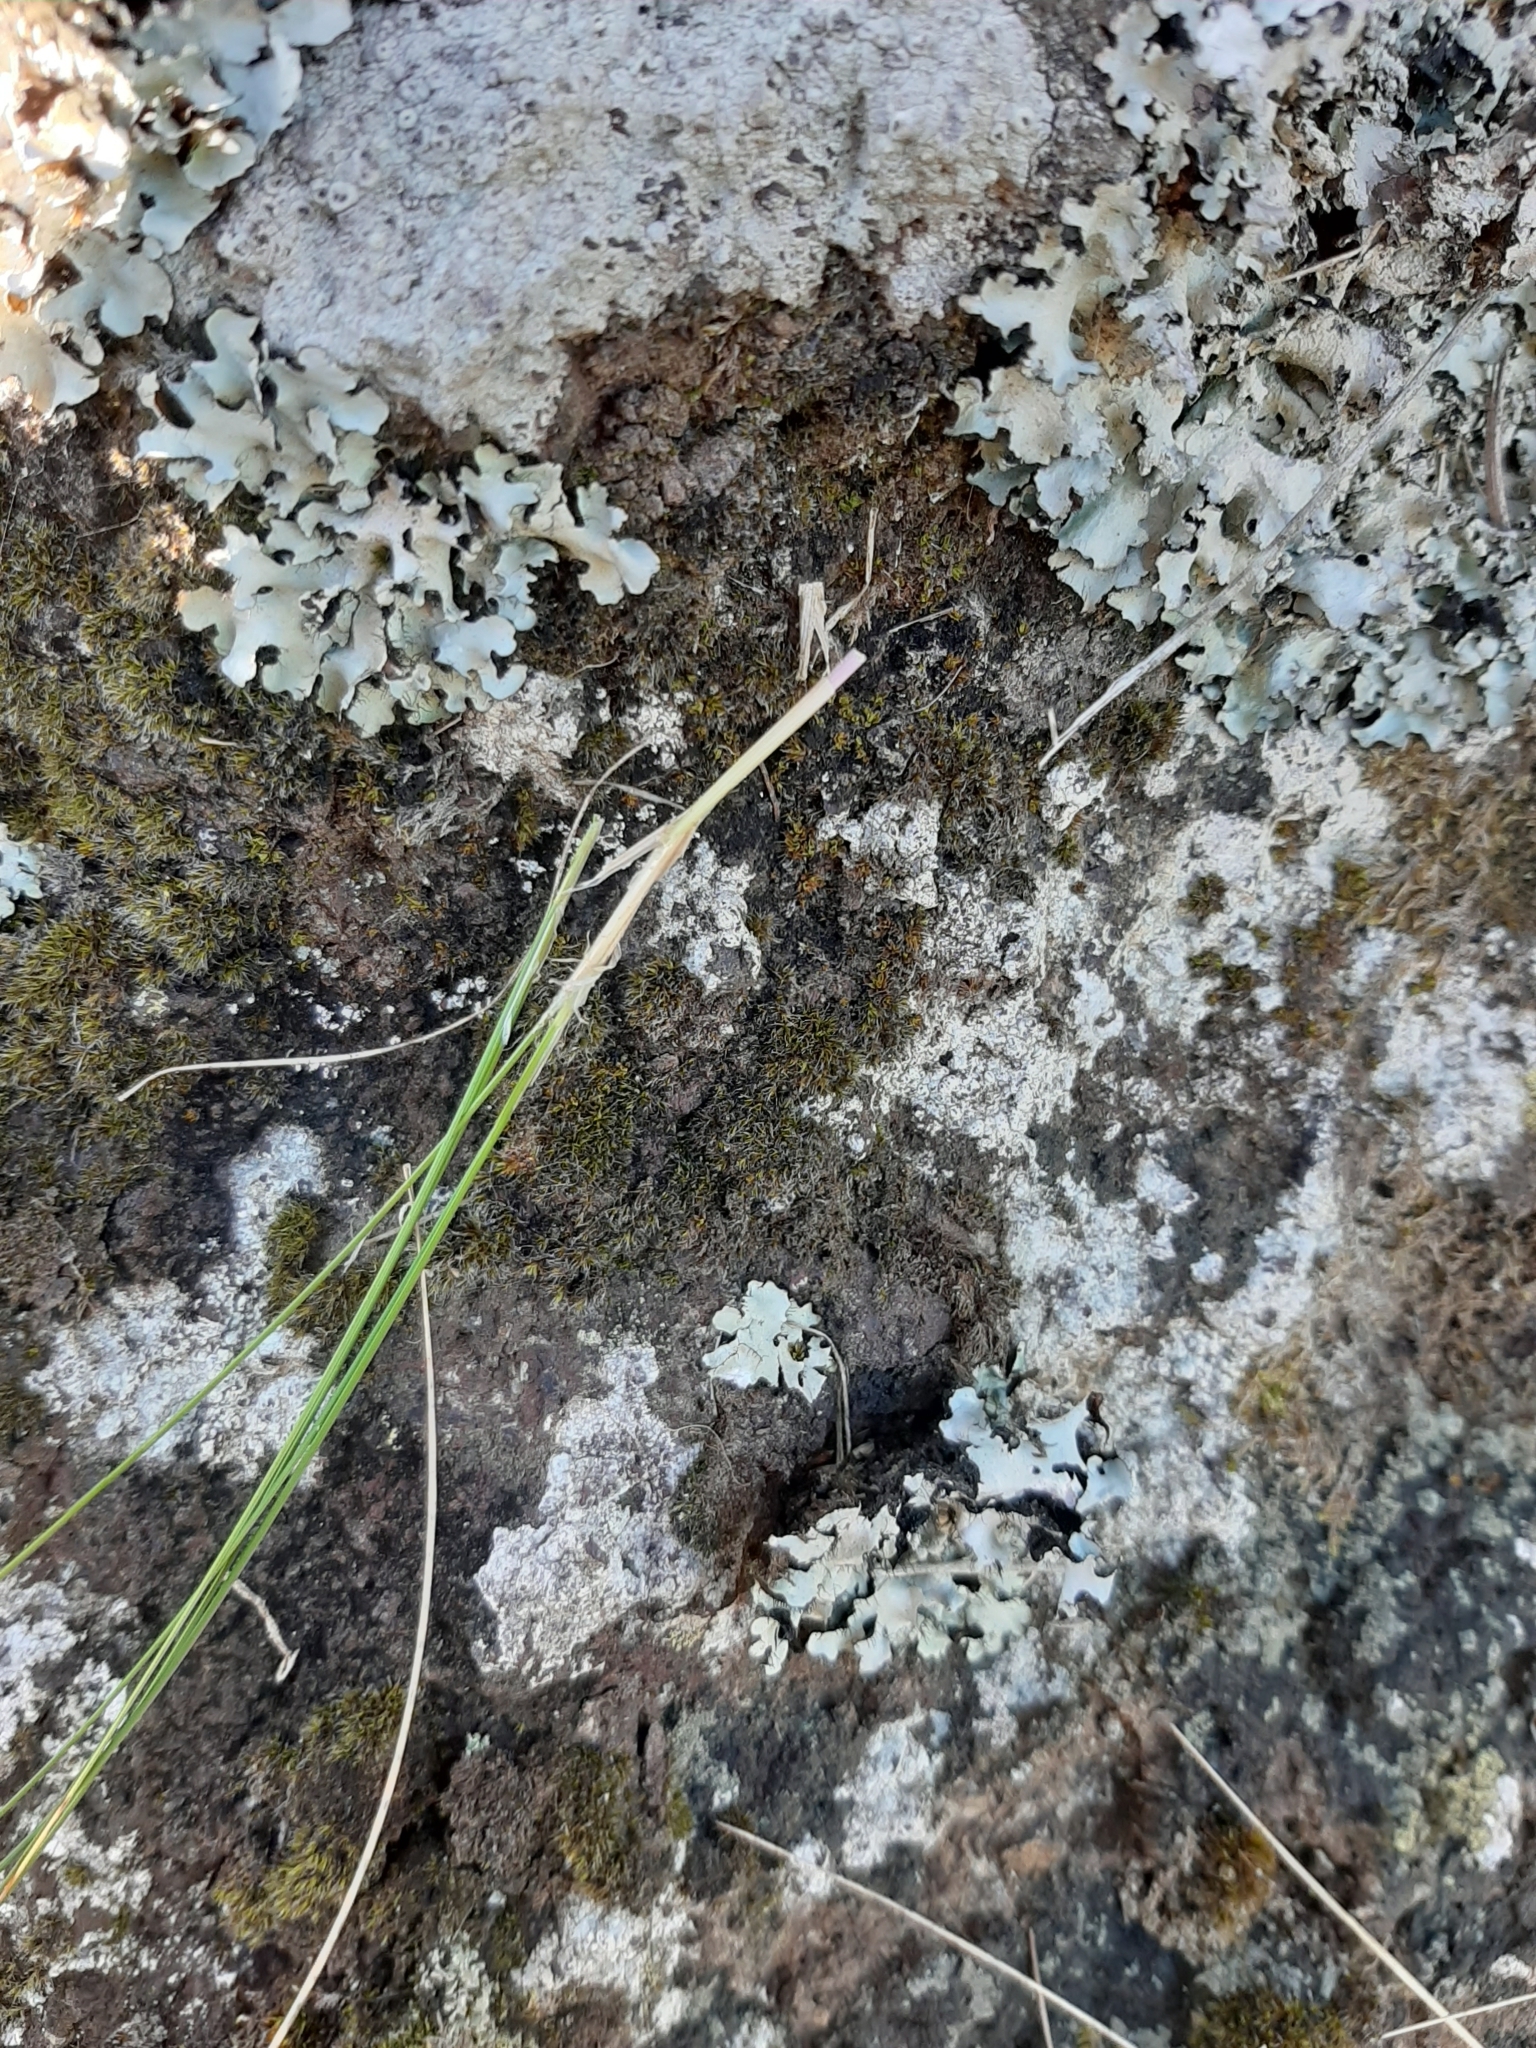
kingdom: Plantae
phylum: Tracheophyta
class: Liliopsida
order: Poales
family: Poaceae
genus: Poa
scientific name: Poa colensoi
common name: Blue tussock
